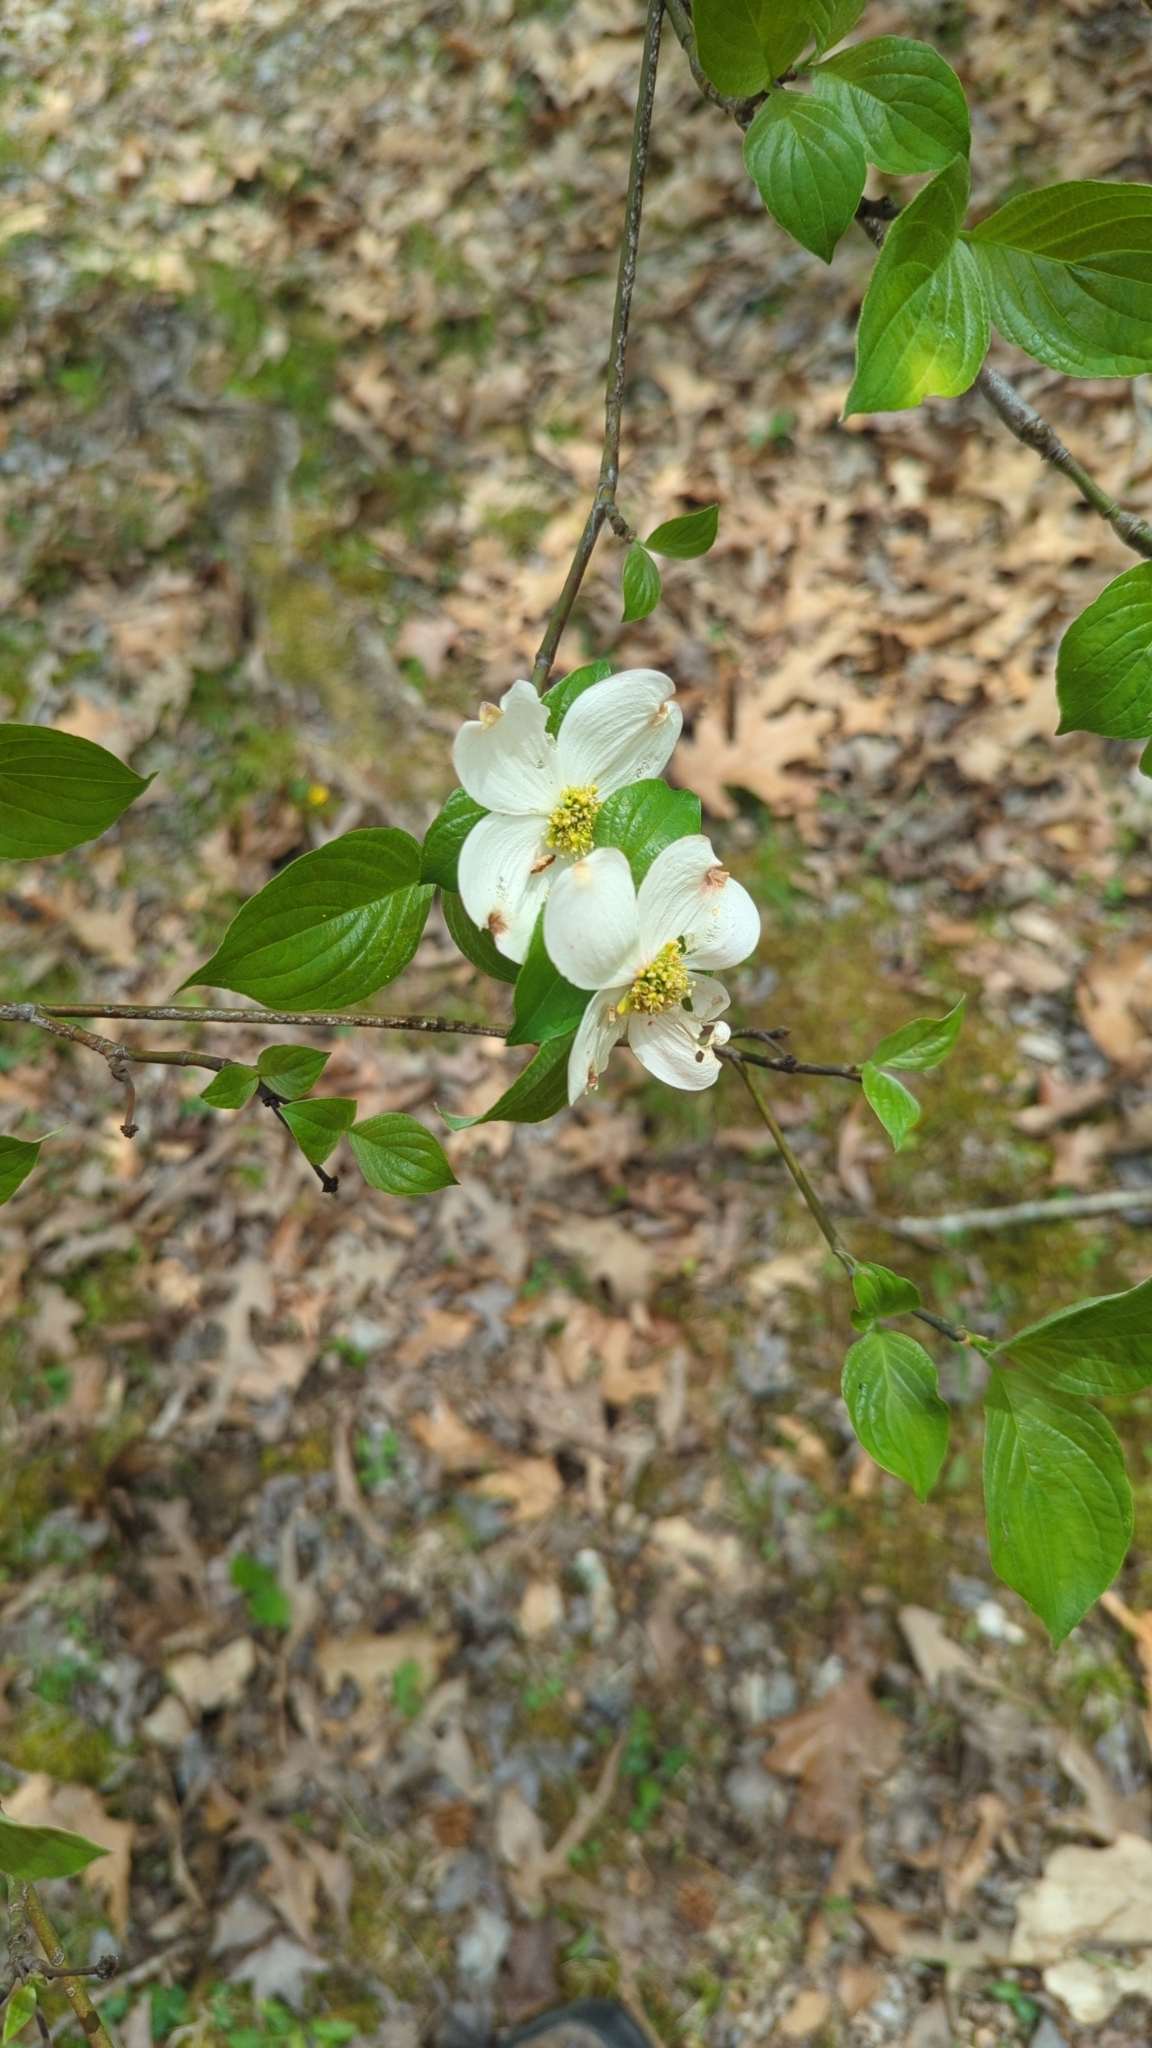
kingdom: Plantae
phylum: Tracheophyta
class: Magnoliopsida
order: Cornales
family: Cornaceae
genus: Cornus
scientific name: Cornus florida
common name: Flowering dogwood
